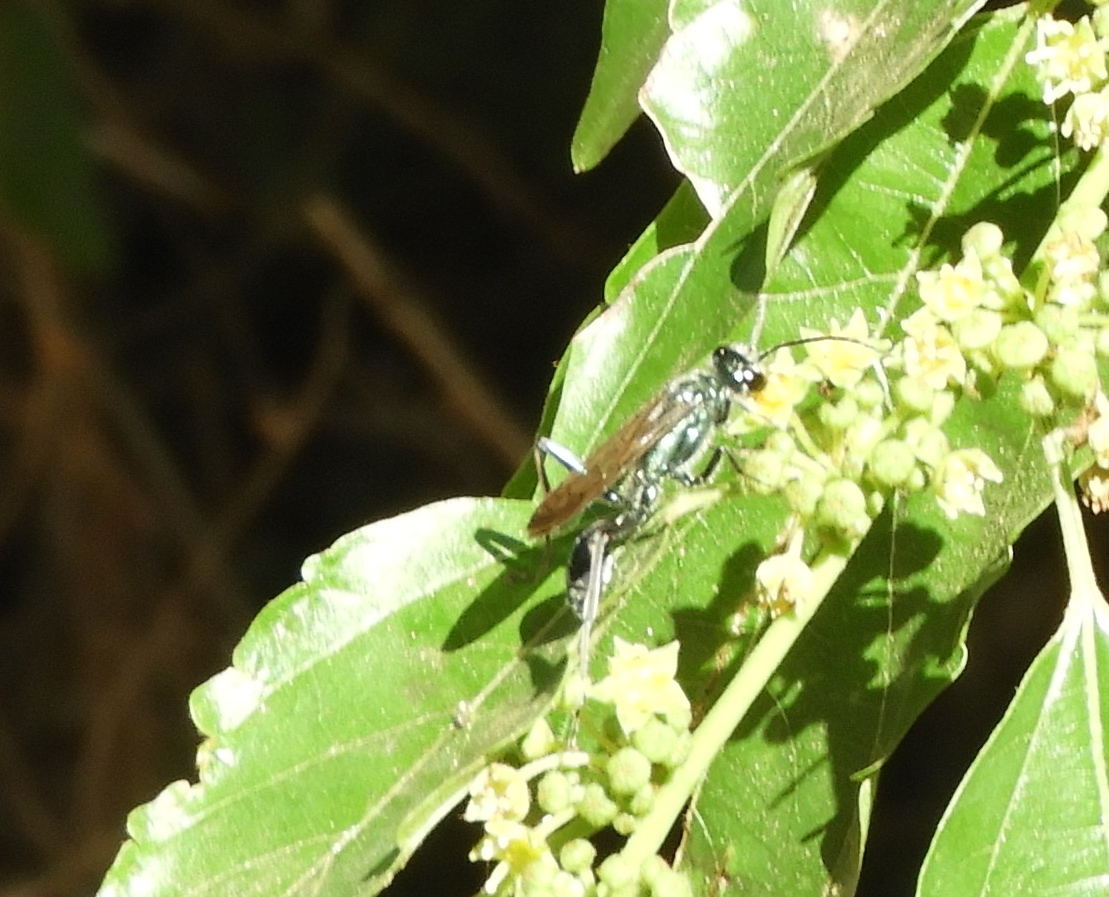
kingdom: Animalia
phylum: Arthropoda
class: Insecta
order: Hymenoptera
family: Sphecidae
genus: Chalybion
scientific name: Chalybion zimmermanni
